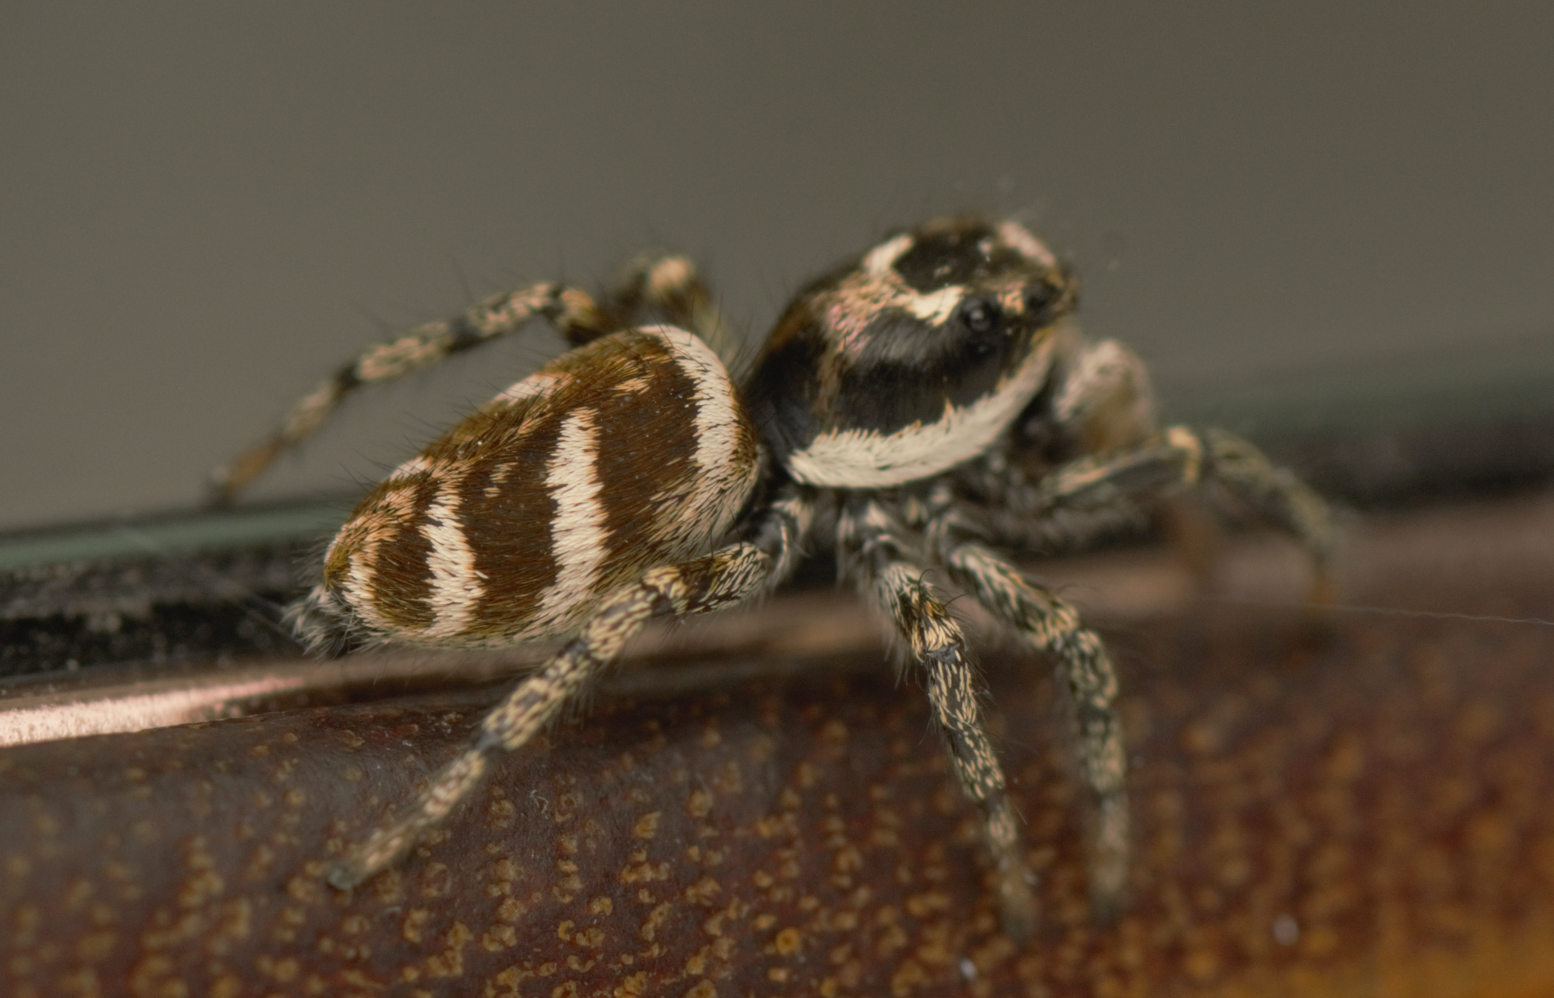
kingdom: Animalia
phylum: Arthropoda
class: Arachnida
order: Araneae
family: Salticidae
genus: Salticus
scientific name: Salticus scenicus
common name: Zebra jumper
